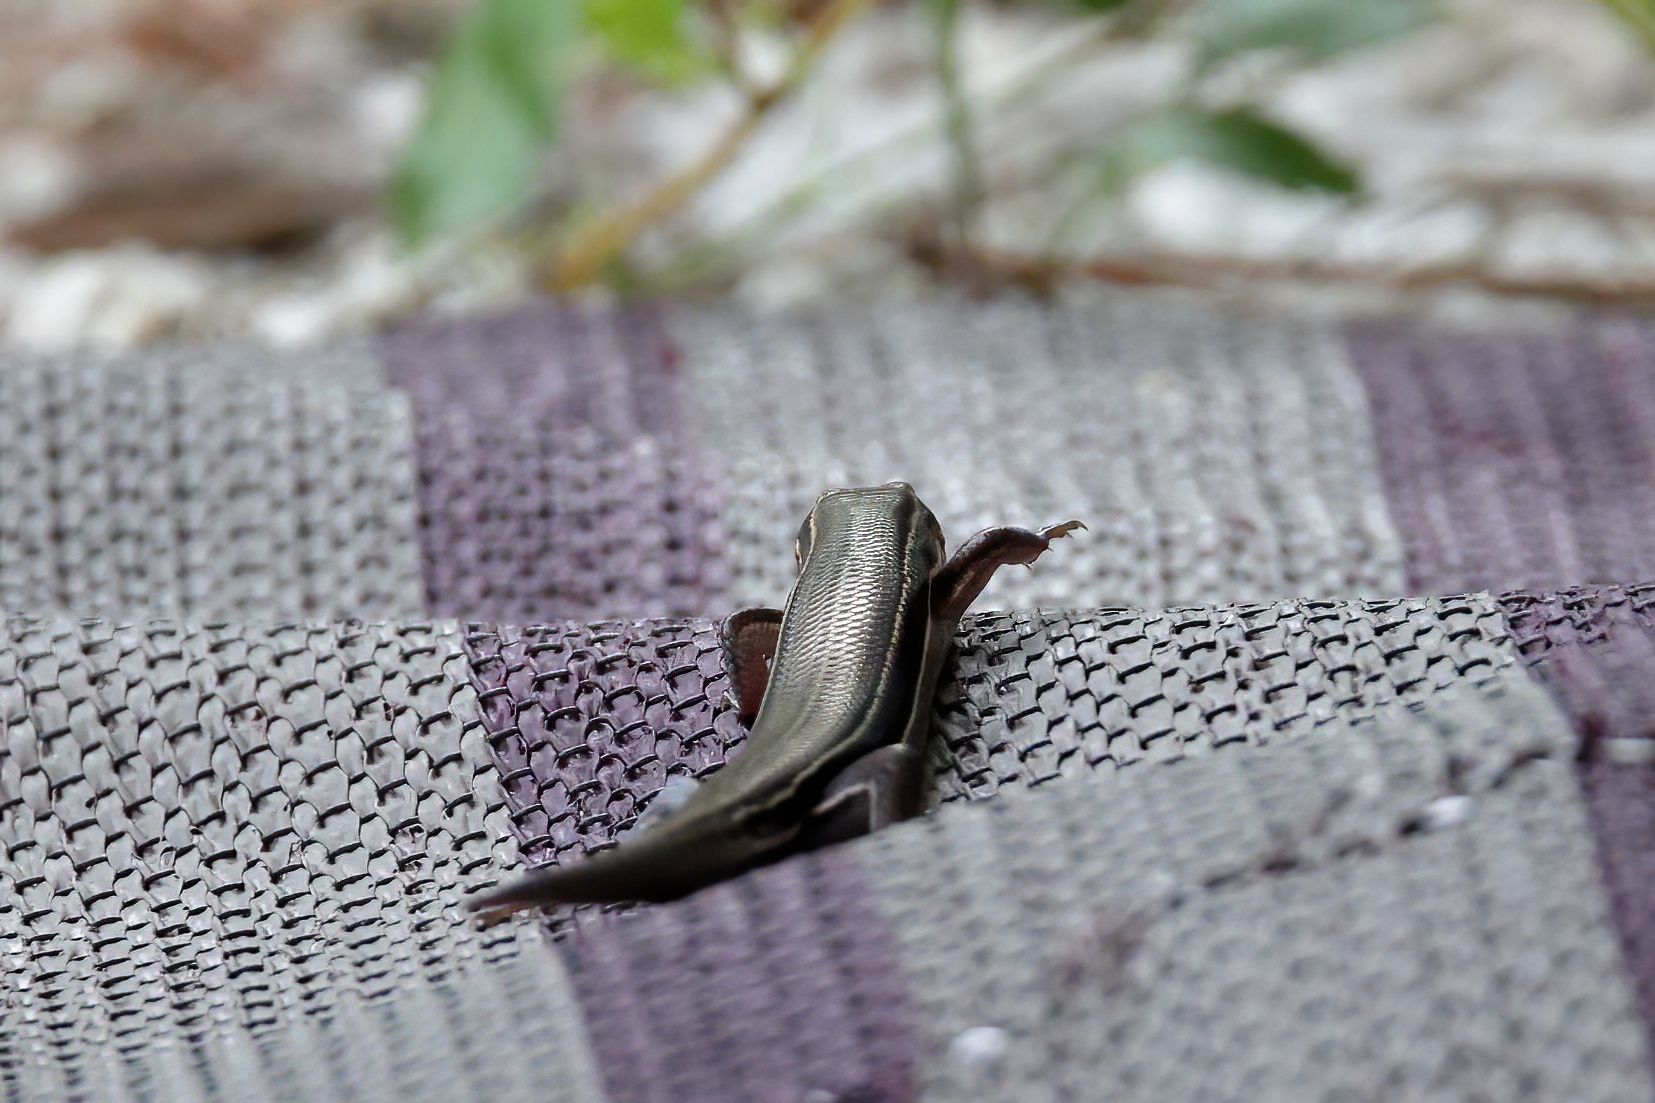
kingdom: Animalia
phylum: Chordata
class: Squamata
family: Scincidae
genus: Plestiodon
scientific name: Plestiodon inexpectatus
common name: Southeastern five-lined skink
